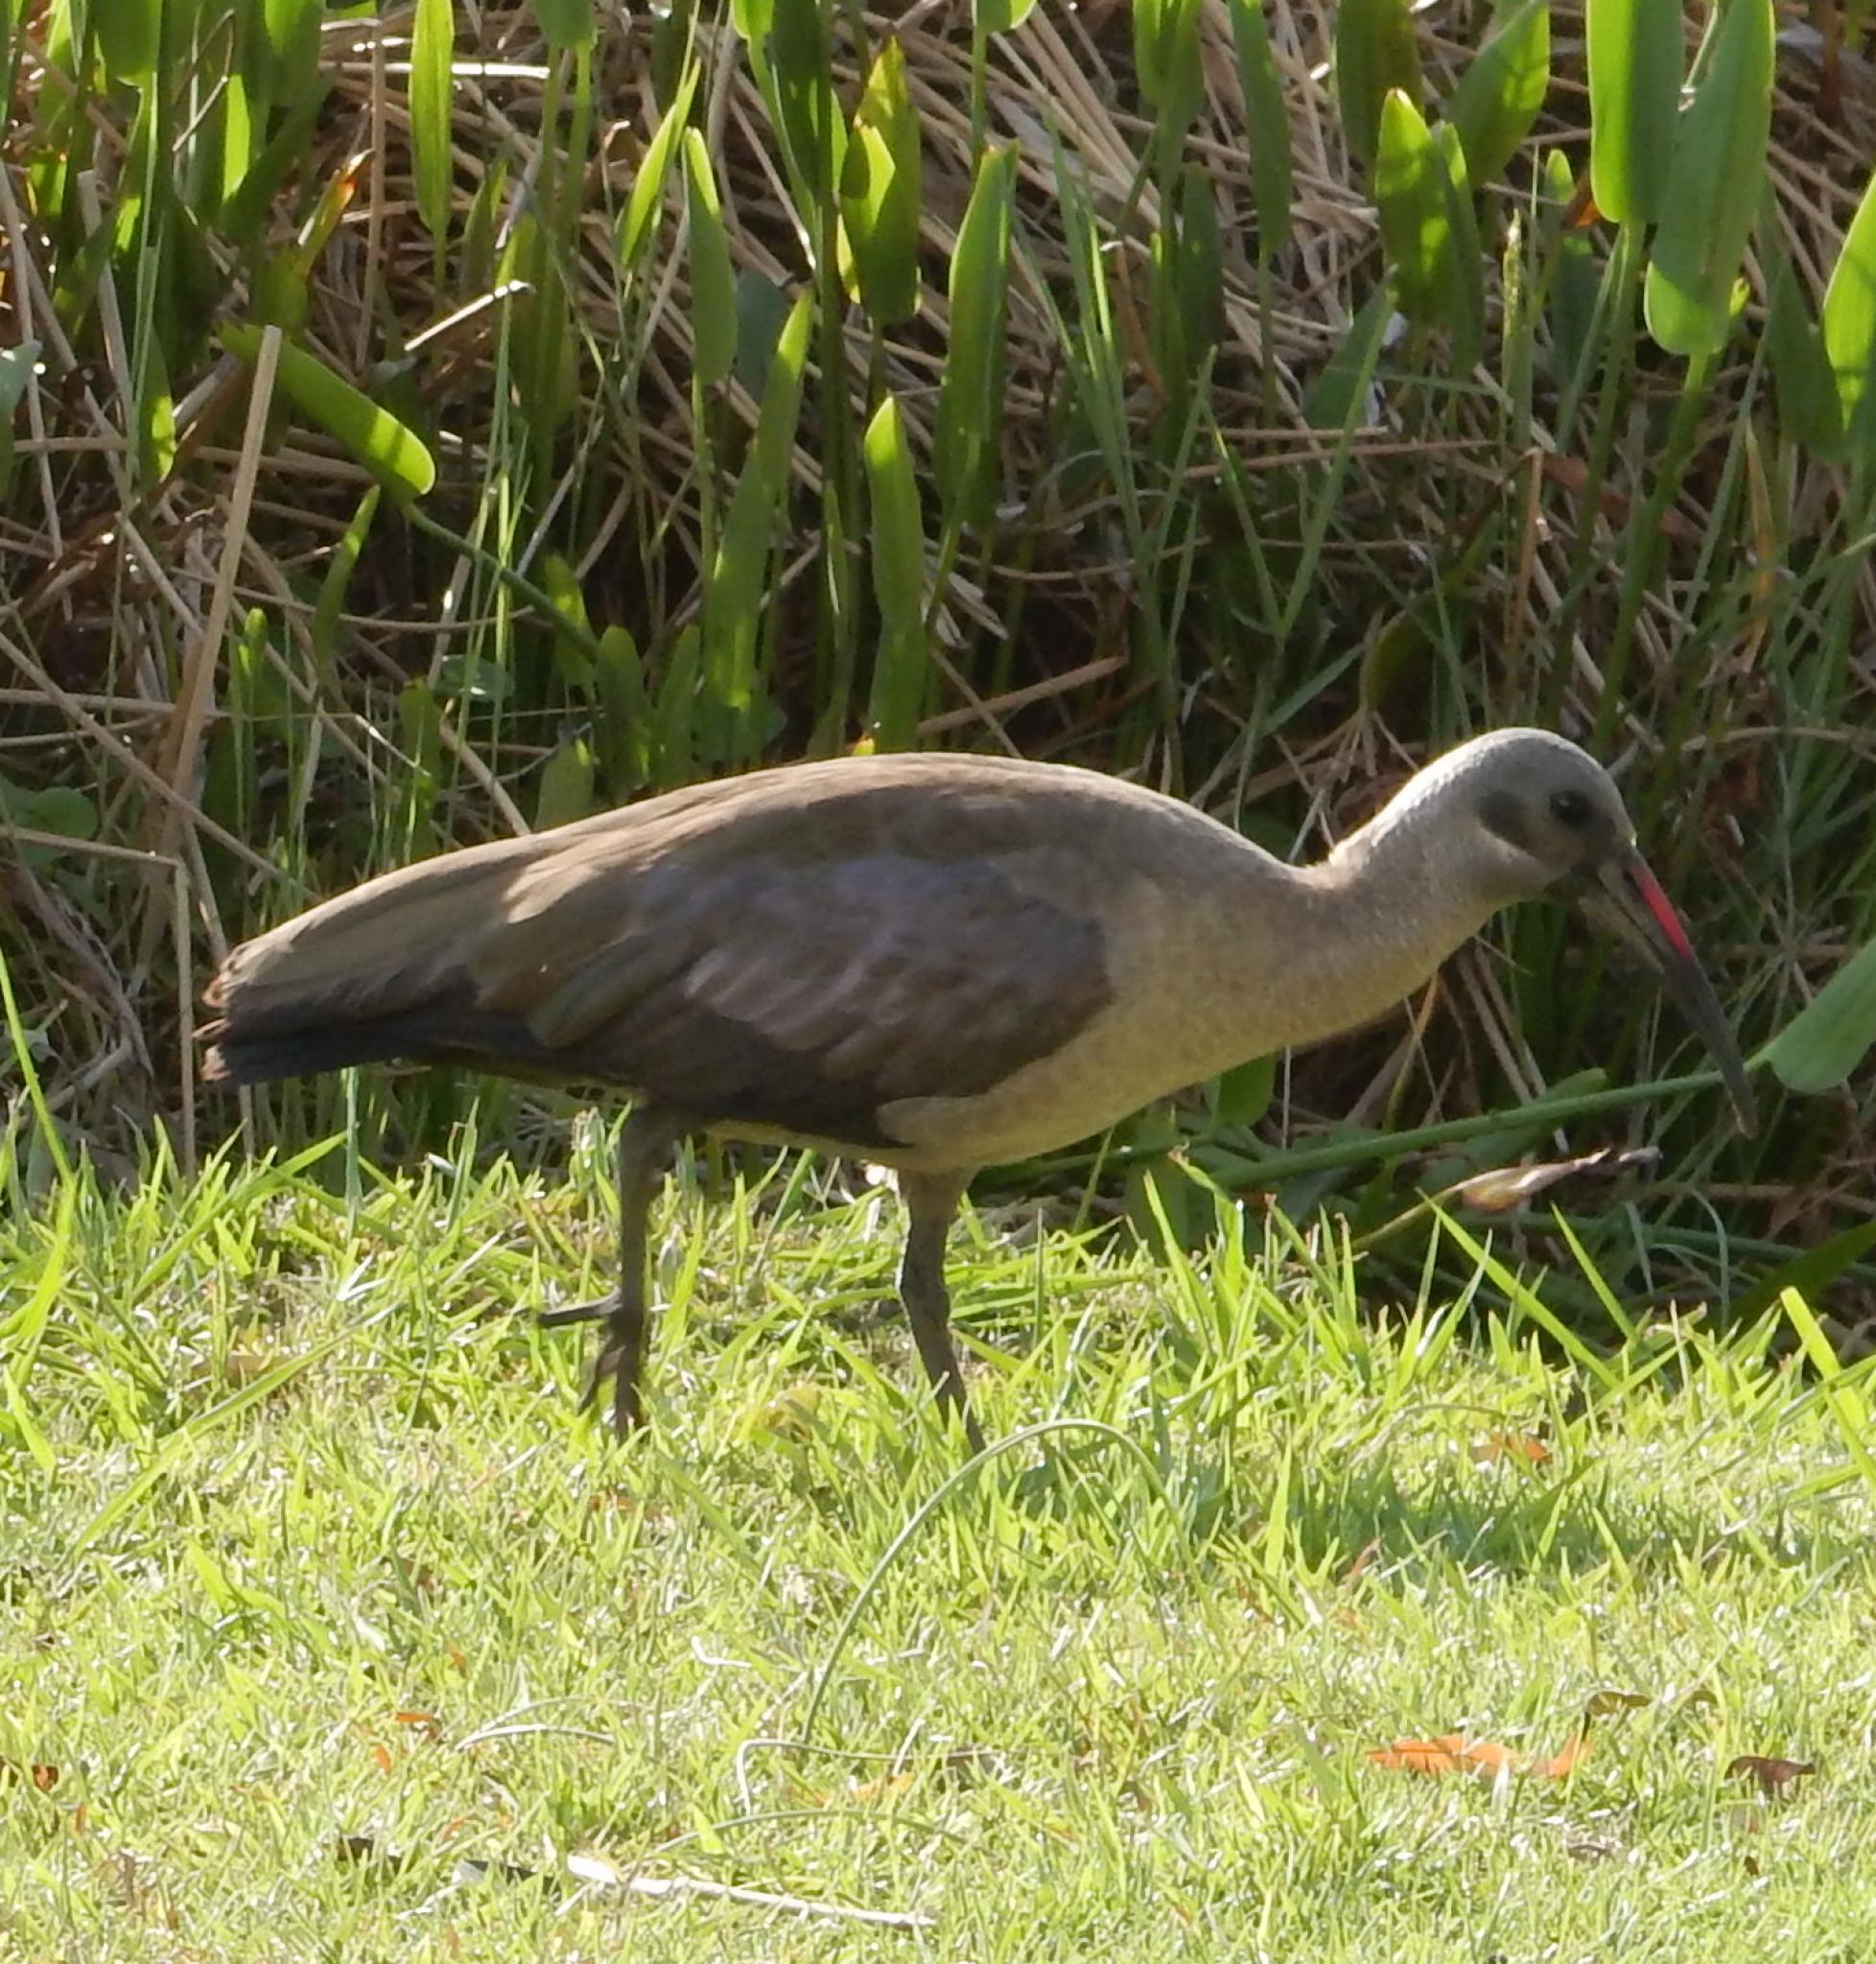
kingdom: Animalia
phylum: Chordata
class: Aves
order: Pelecaniformes
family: Threskiornithidae
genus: Bostrychia
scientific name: Bostrychia hagedash
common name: Hadada ibis
